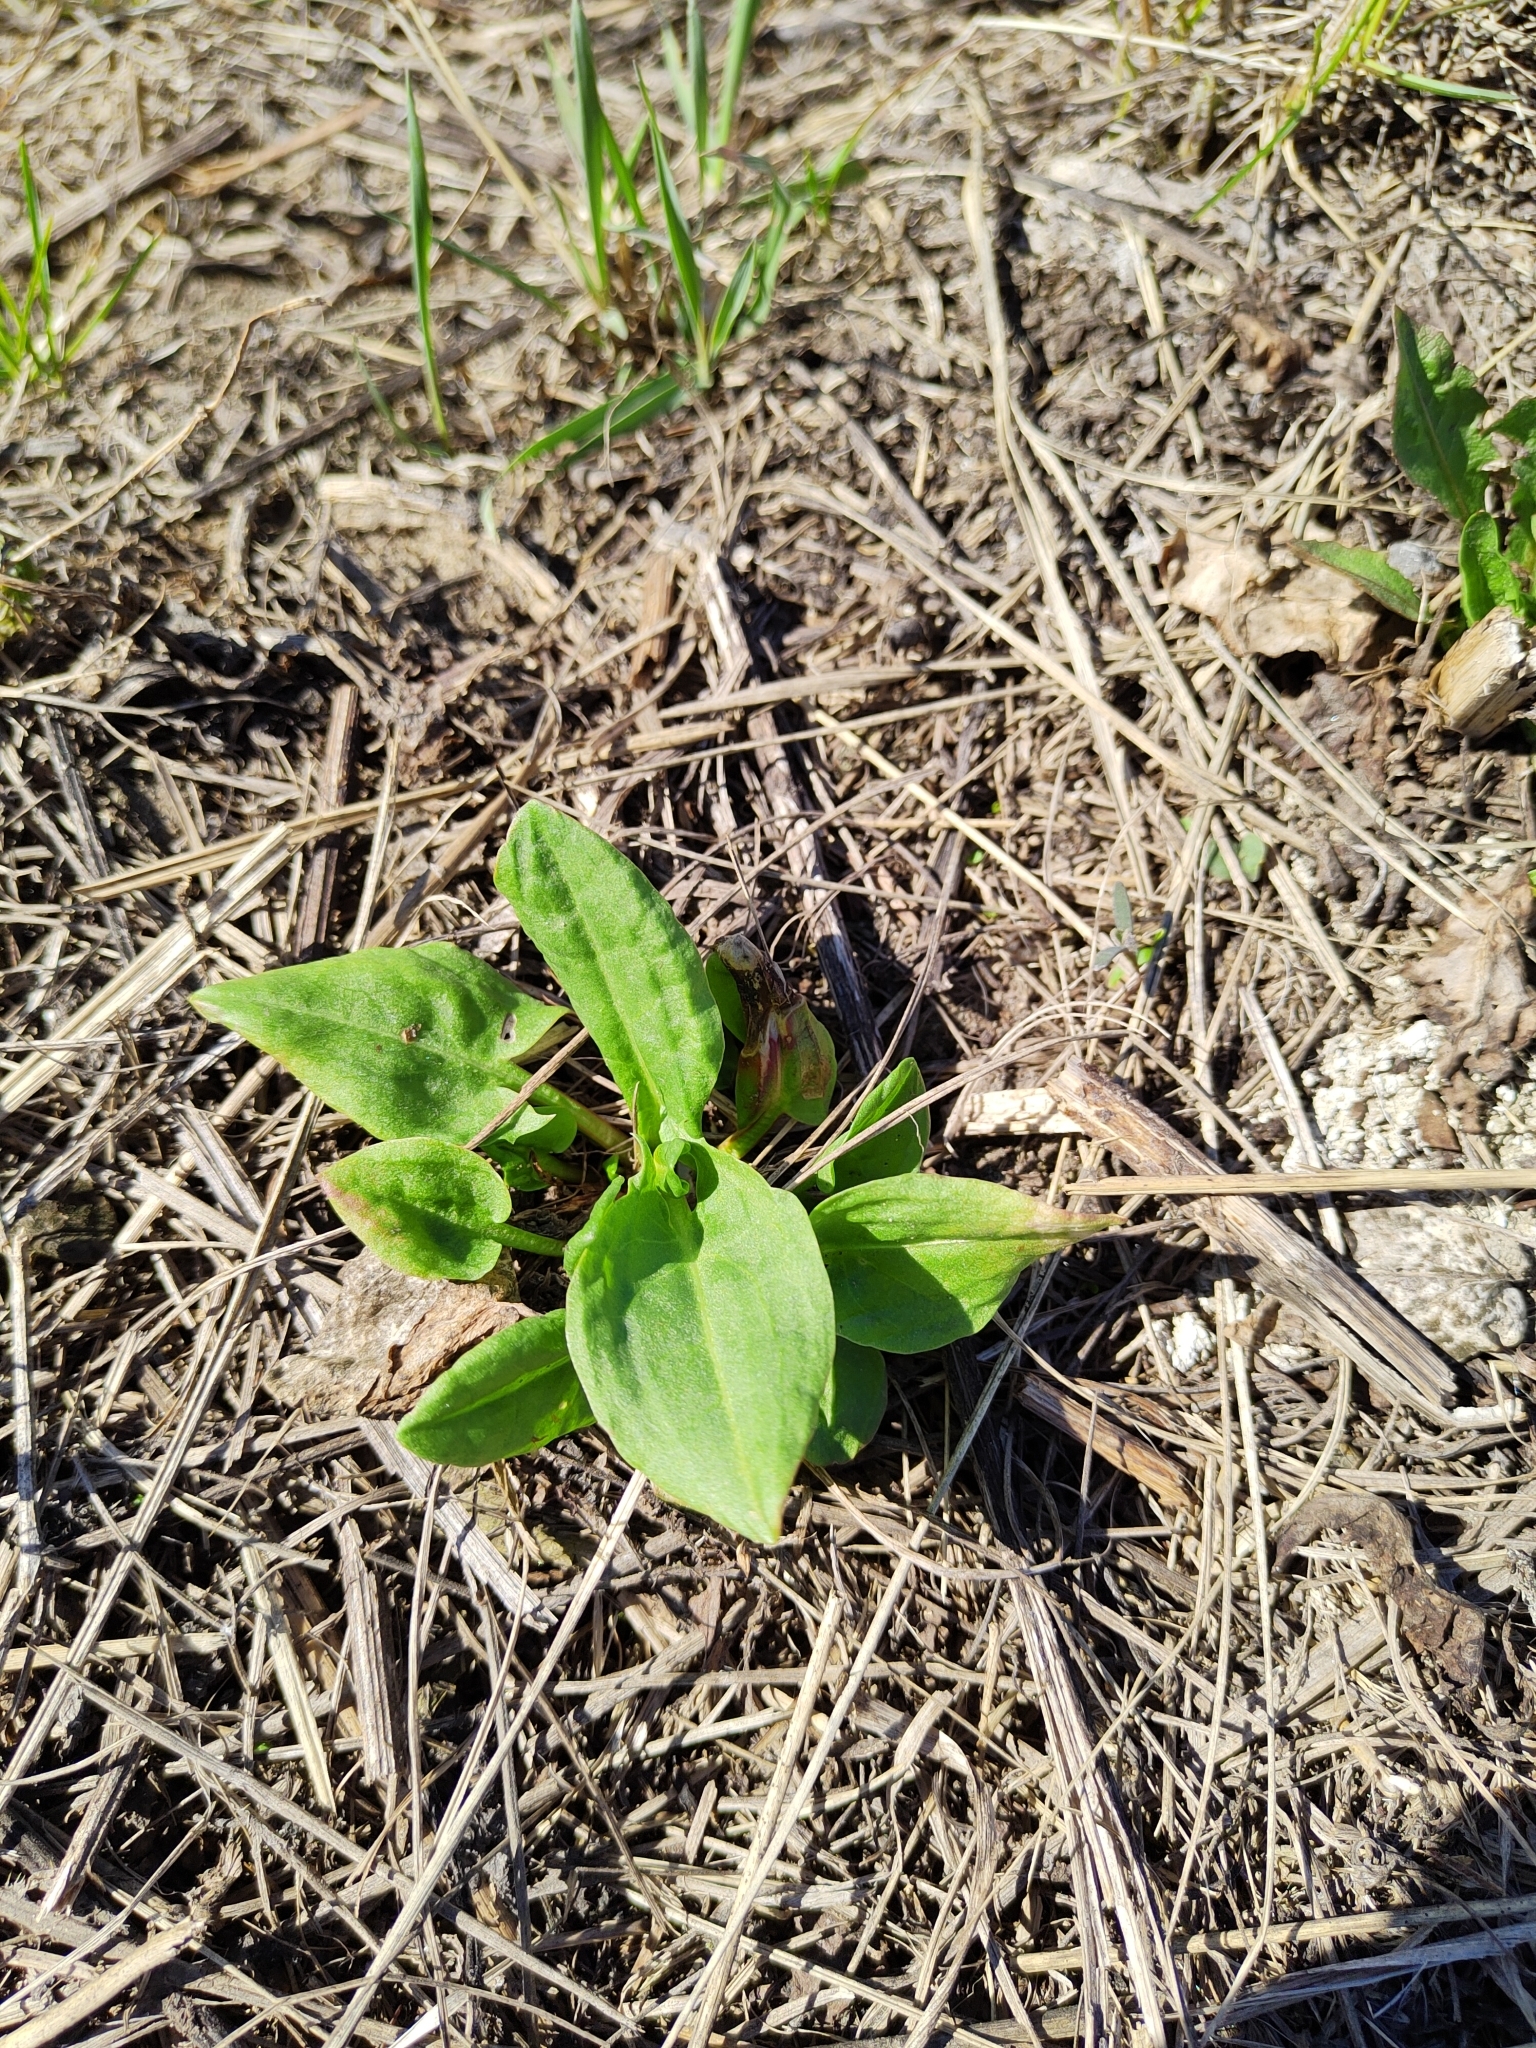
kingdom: Plantae
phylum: Tracheophyta
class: Magnoliopsida
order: Caryophyllales
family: Polygonaceae
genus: Rumex
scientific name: Rumex thyrsiflorus
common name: Garden sorrel
